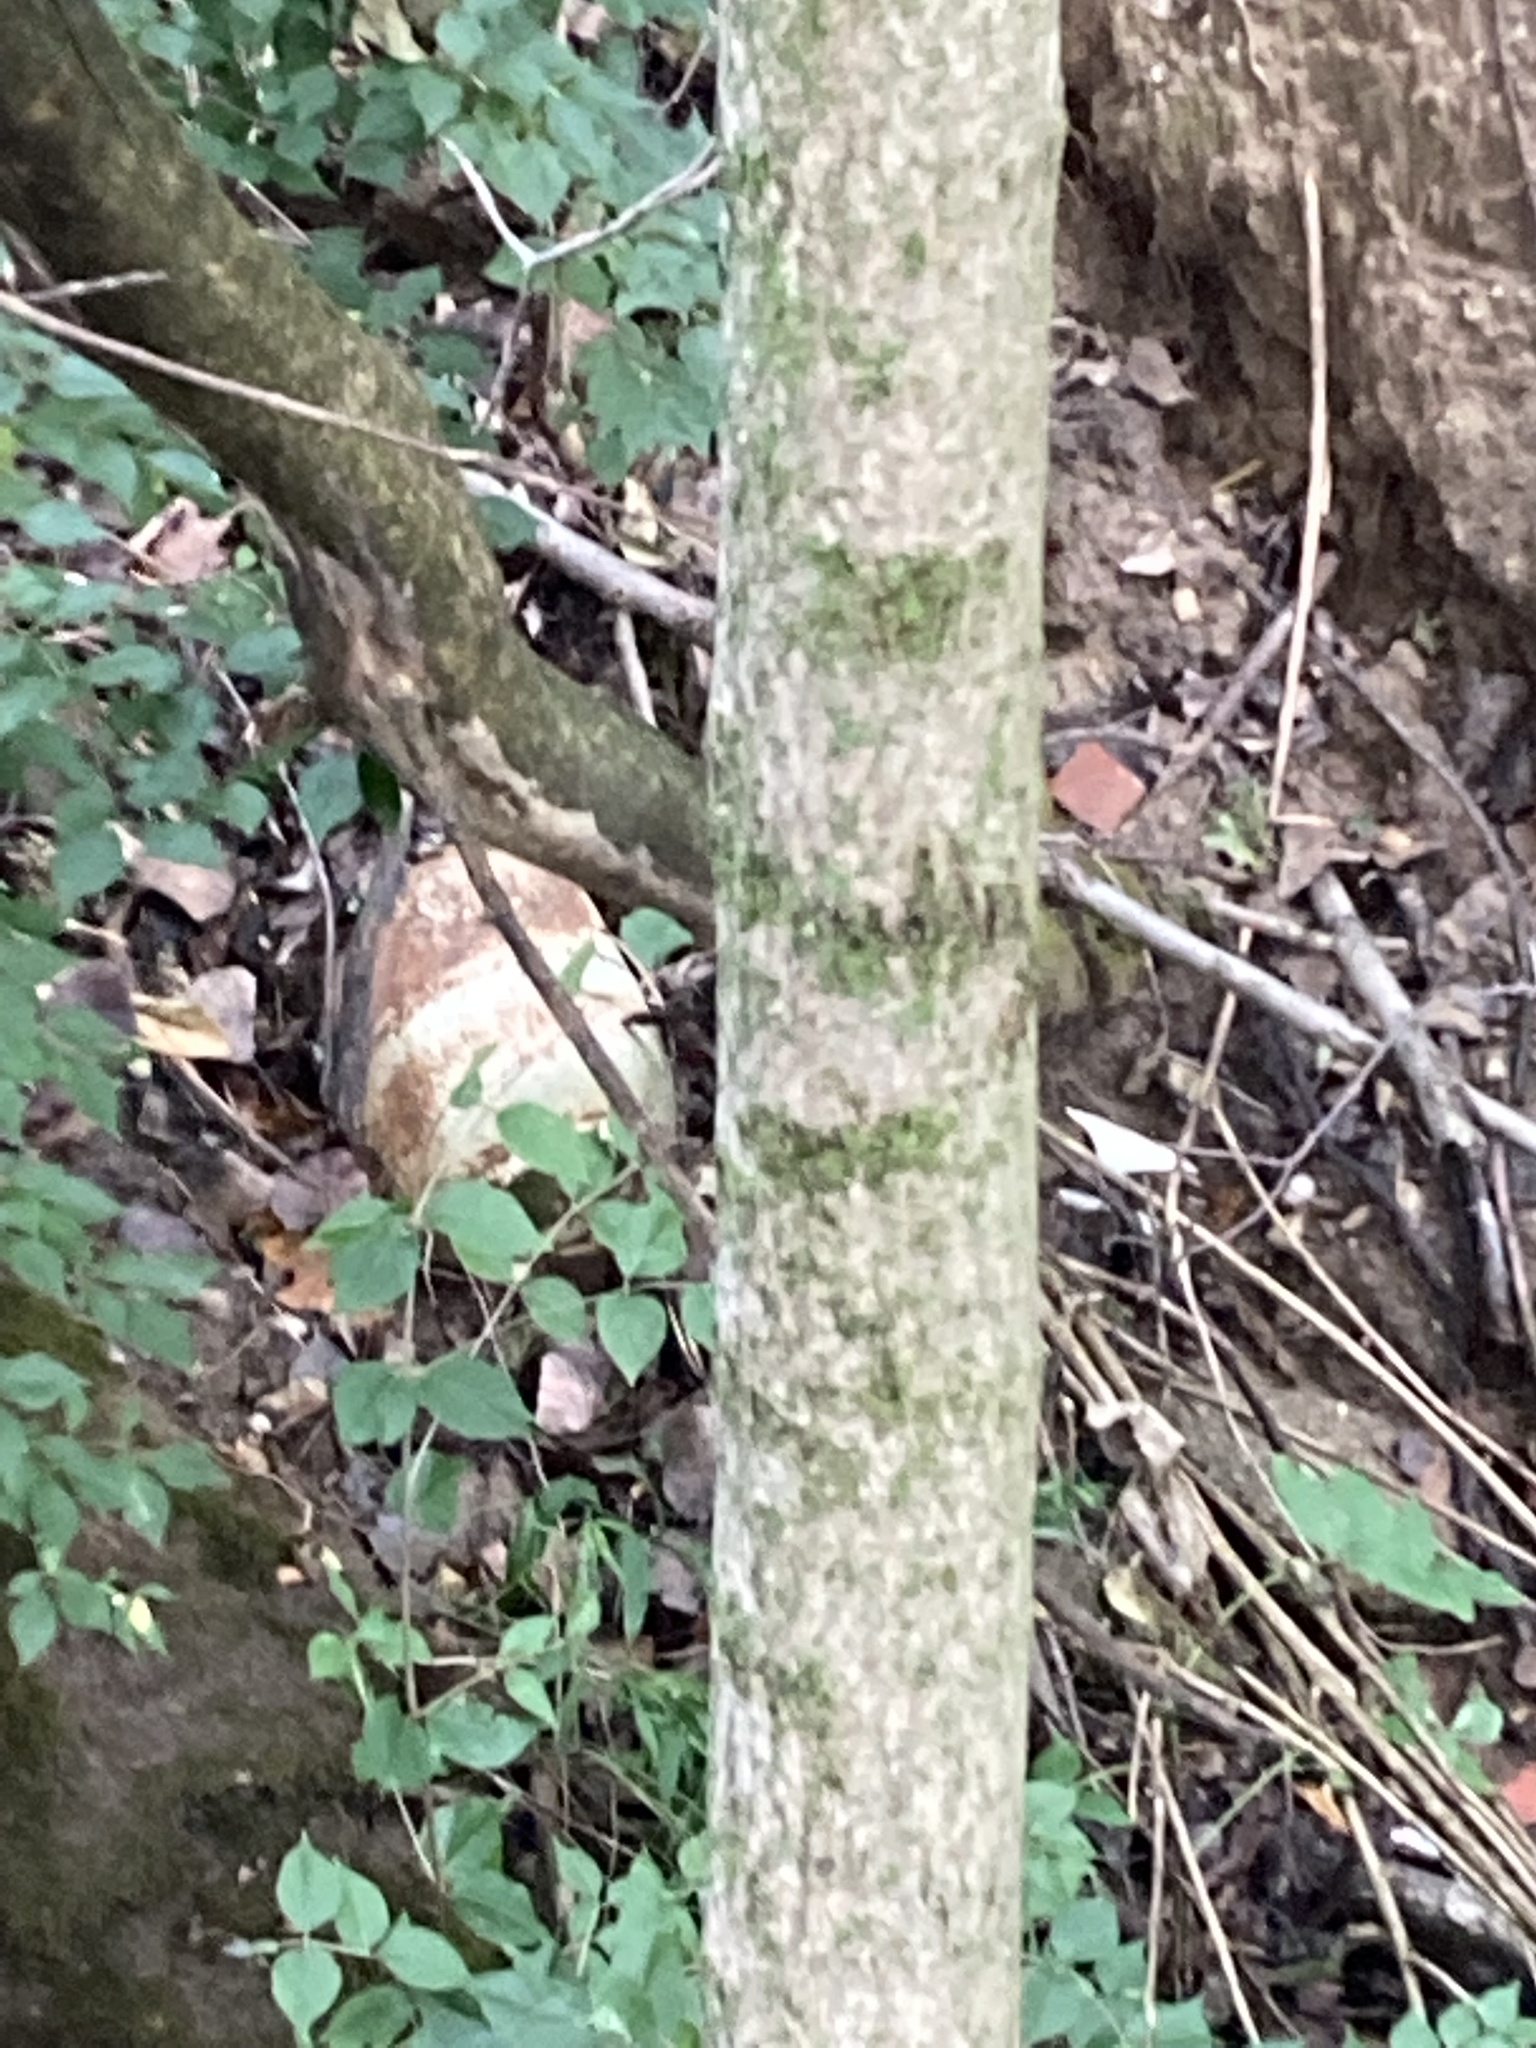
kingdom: Plantae
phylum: Tracheophyta
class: Magnoliopsida
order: Sapindales
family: Sapindaceae
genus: Acer
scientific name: Acer platanoides
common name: Norway maple
